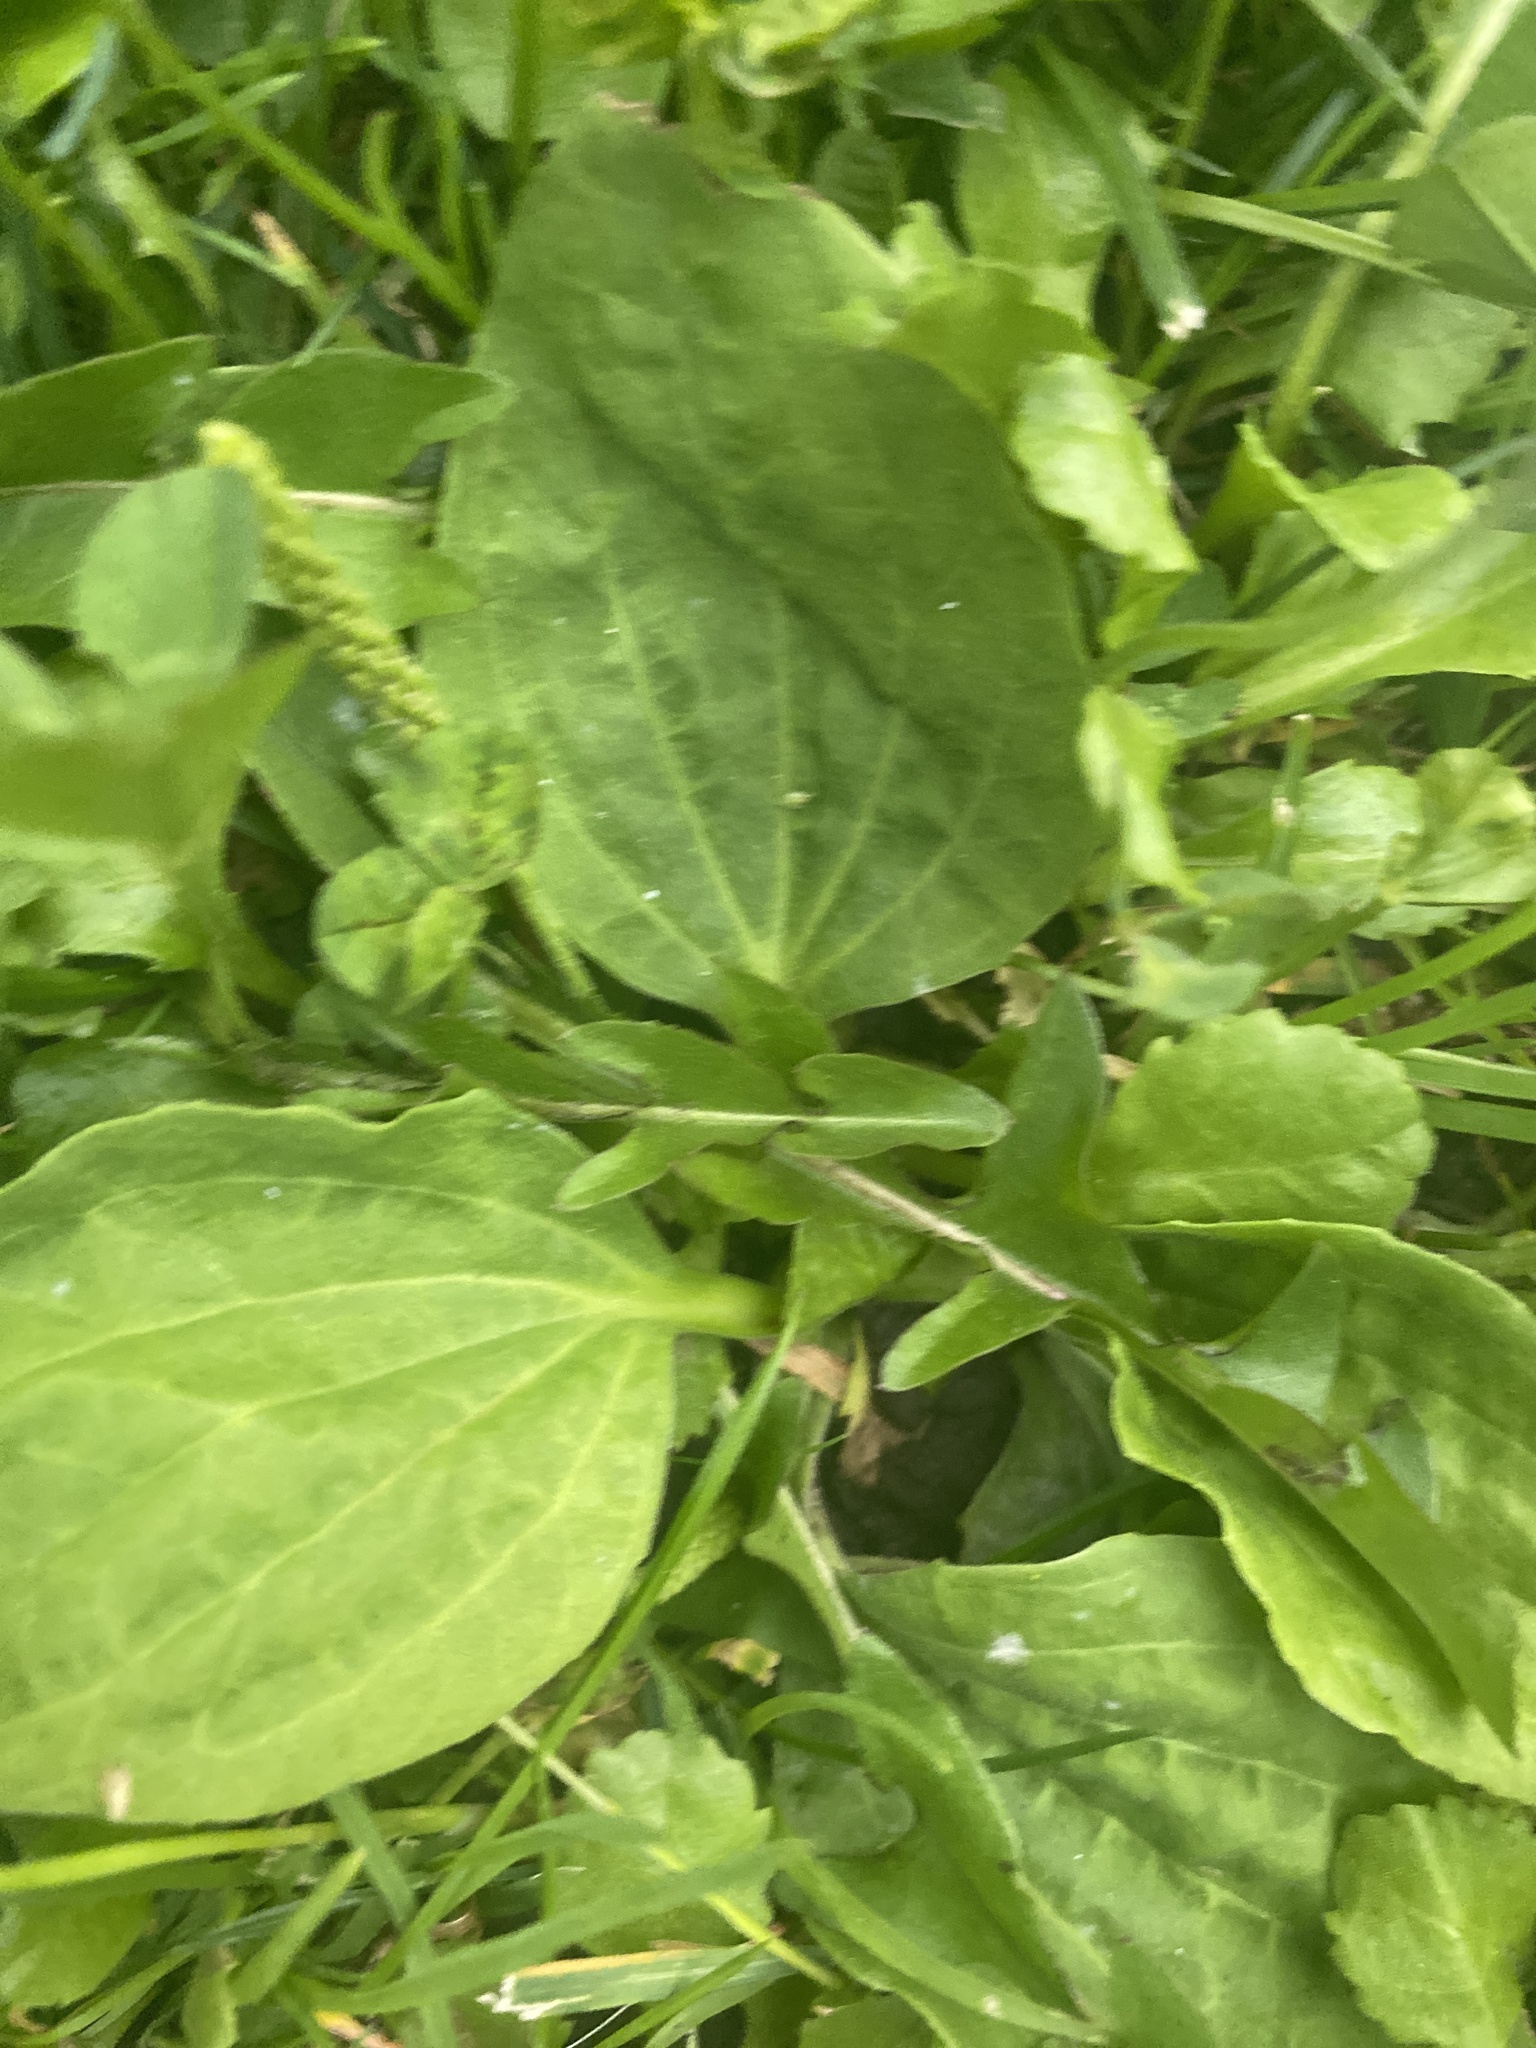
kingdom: Plantae
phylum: Tracheophyta
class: Magnoliopsida
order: Lamiales
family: Plantaginaceae
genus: Plantago
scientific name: Plantago major
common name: Common plantain
